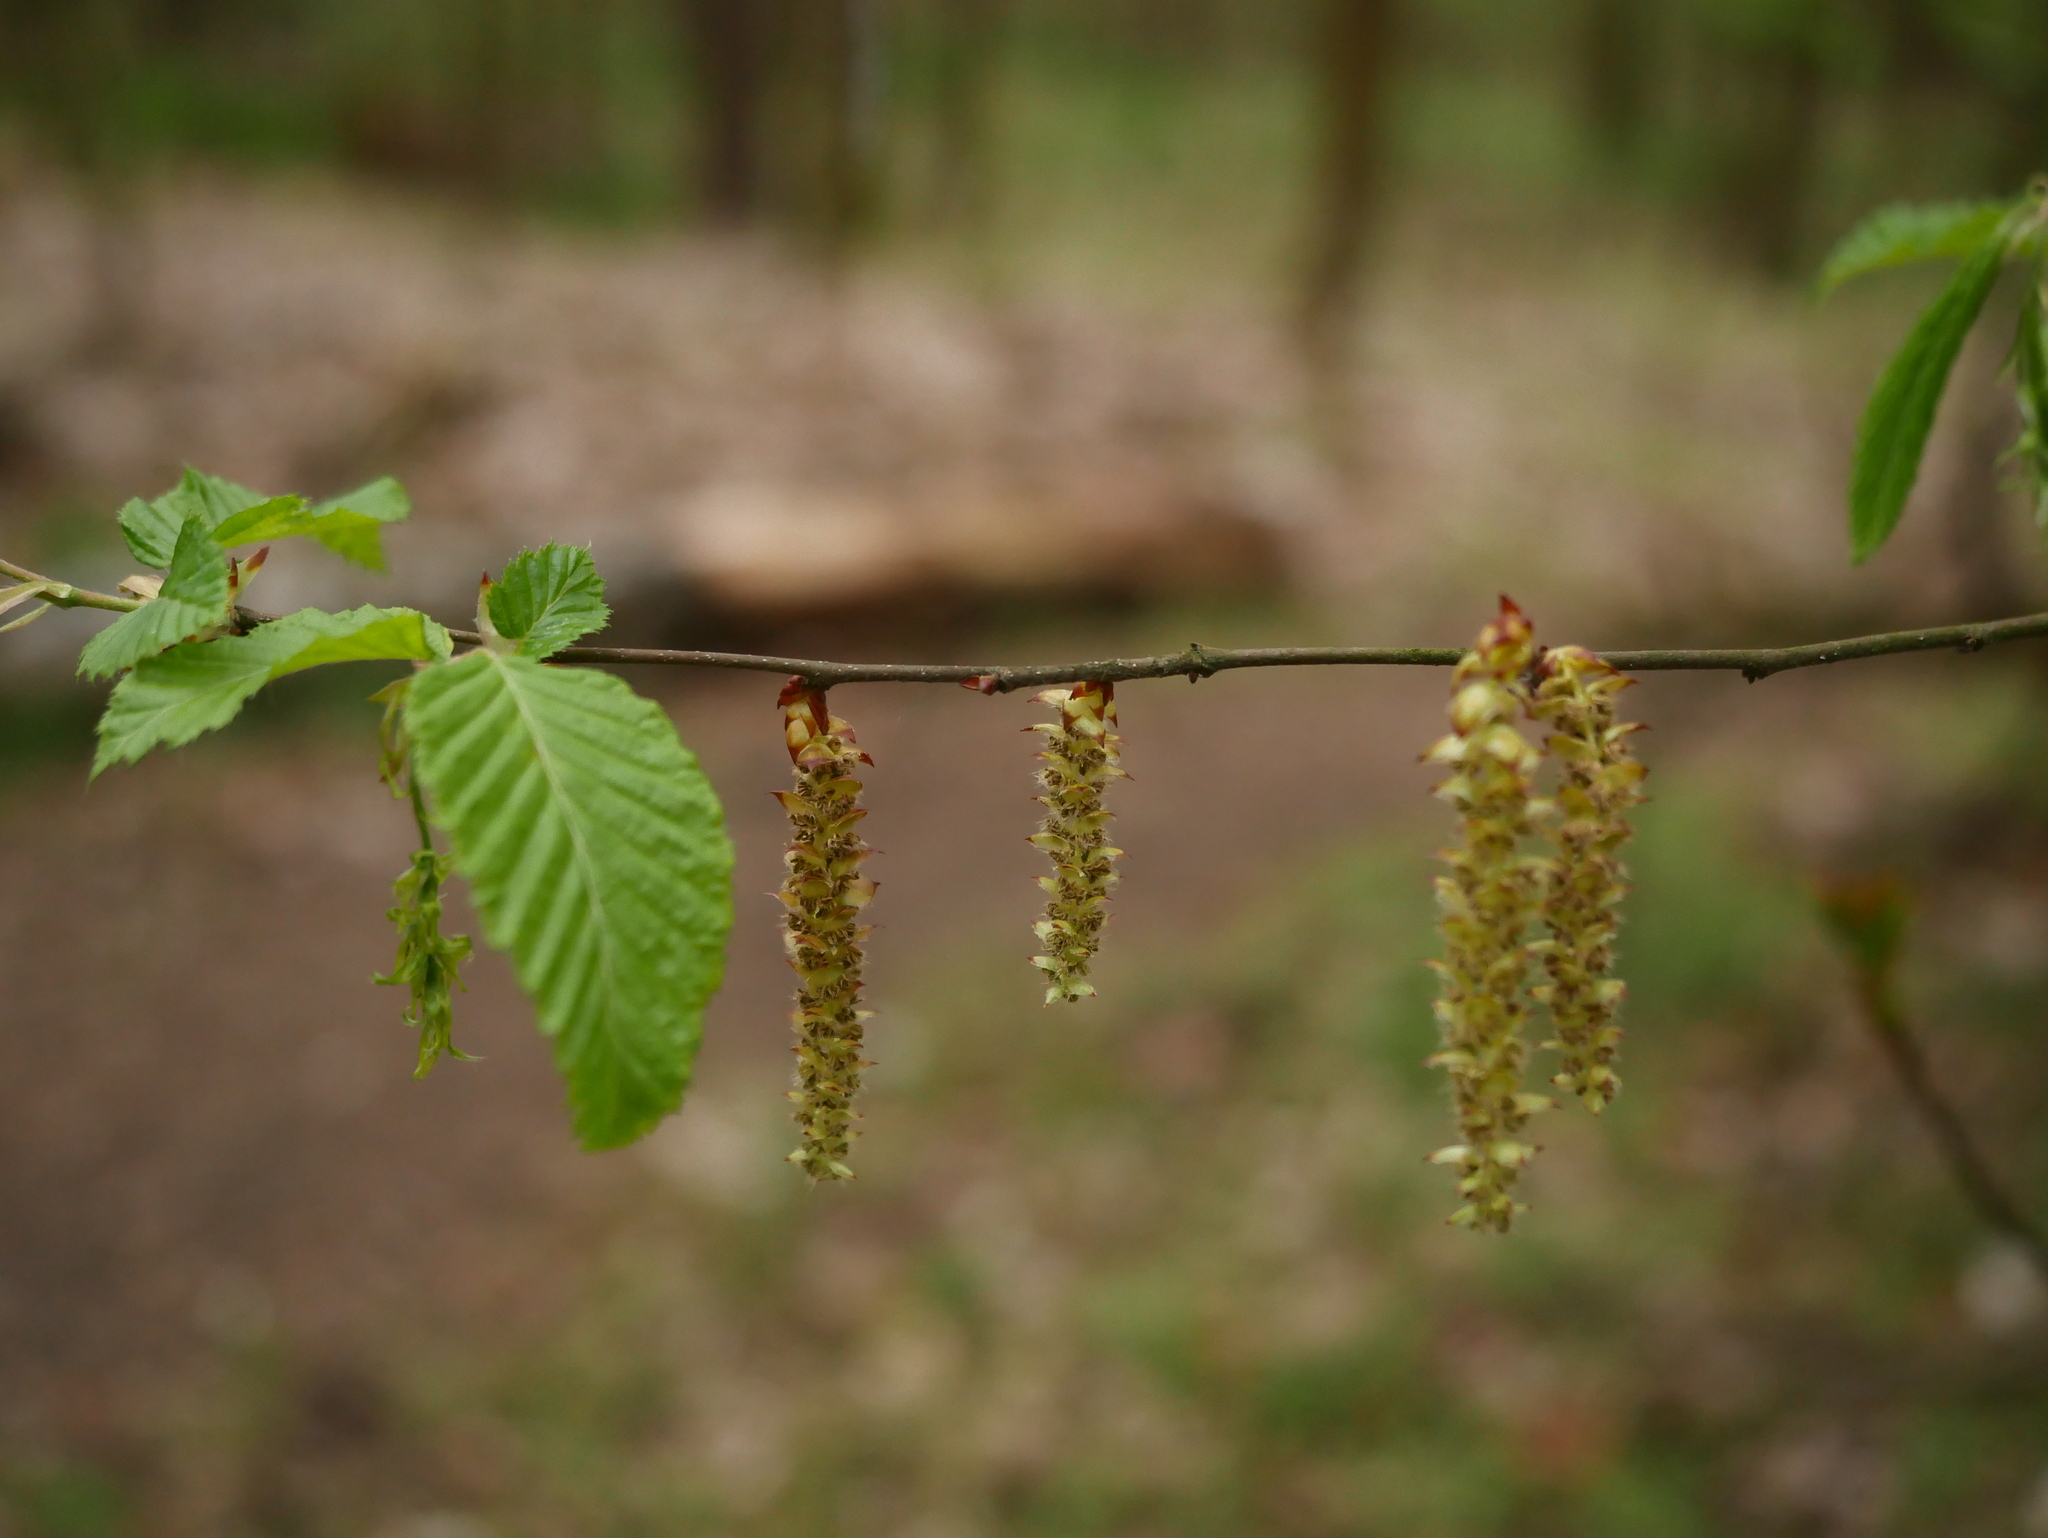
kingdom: Plantae
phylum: Tracheophyta
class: Magnoliopsida
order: Fagales
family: Betulaceae
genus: Carpinus
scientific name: Carpinus betulus
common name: Hornbeam
